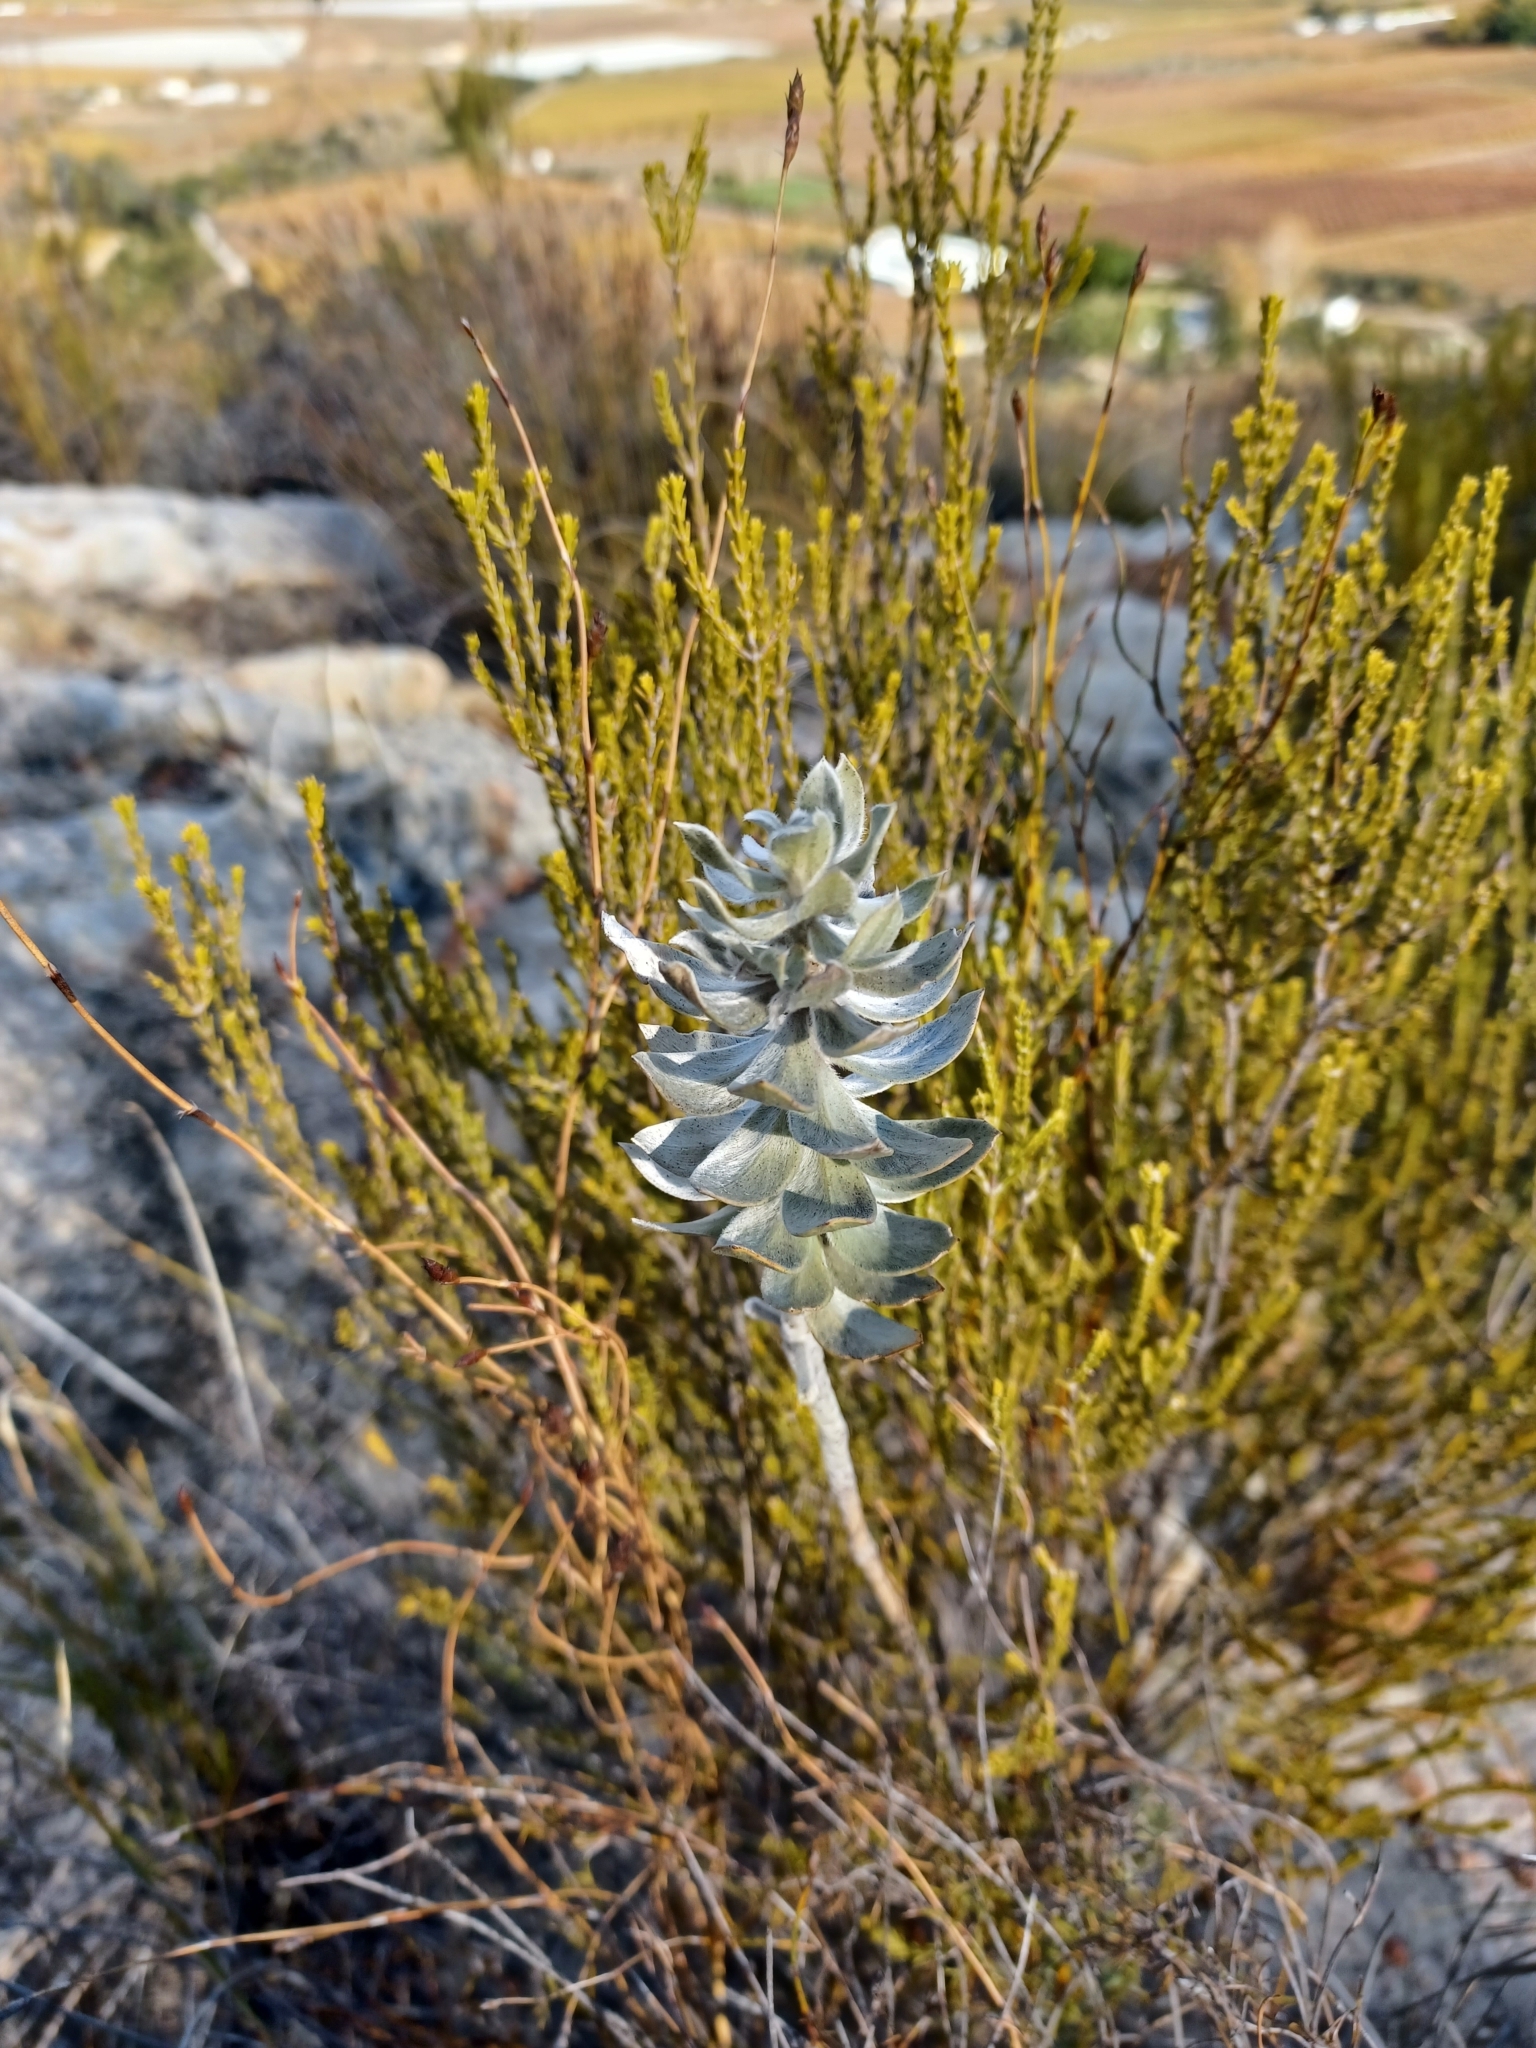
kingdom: Plantae
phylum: Tracheophyta
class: Magnoliopsida
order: Fabales
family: Fabaceae
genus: Xiphotheca
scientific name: Xiphotheca fruticosa
